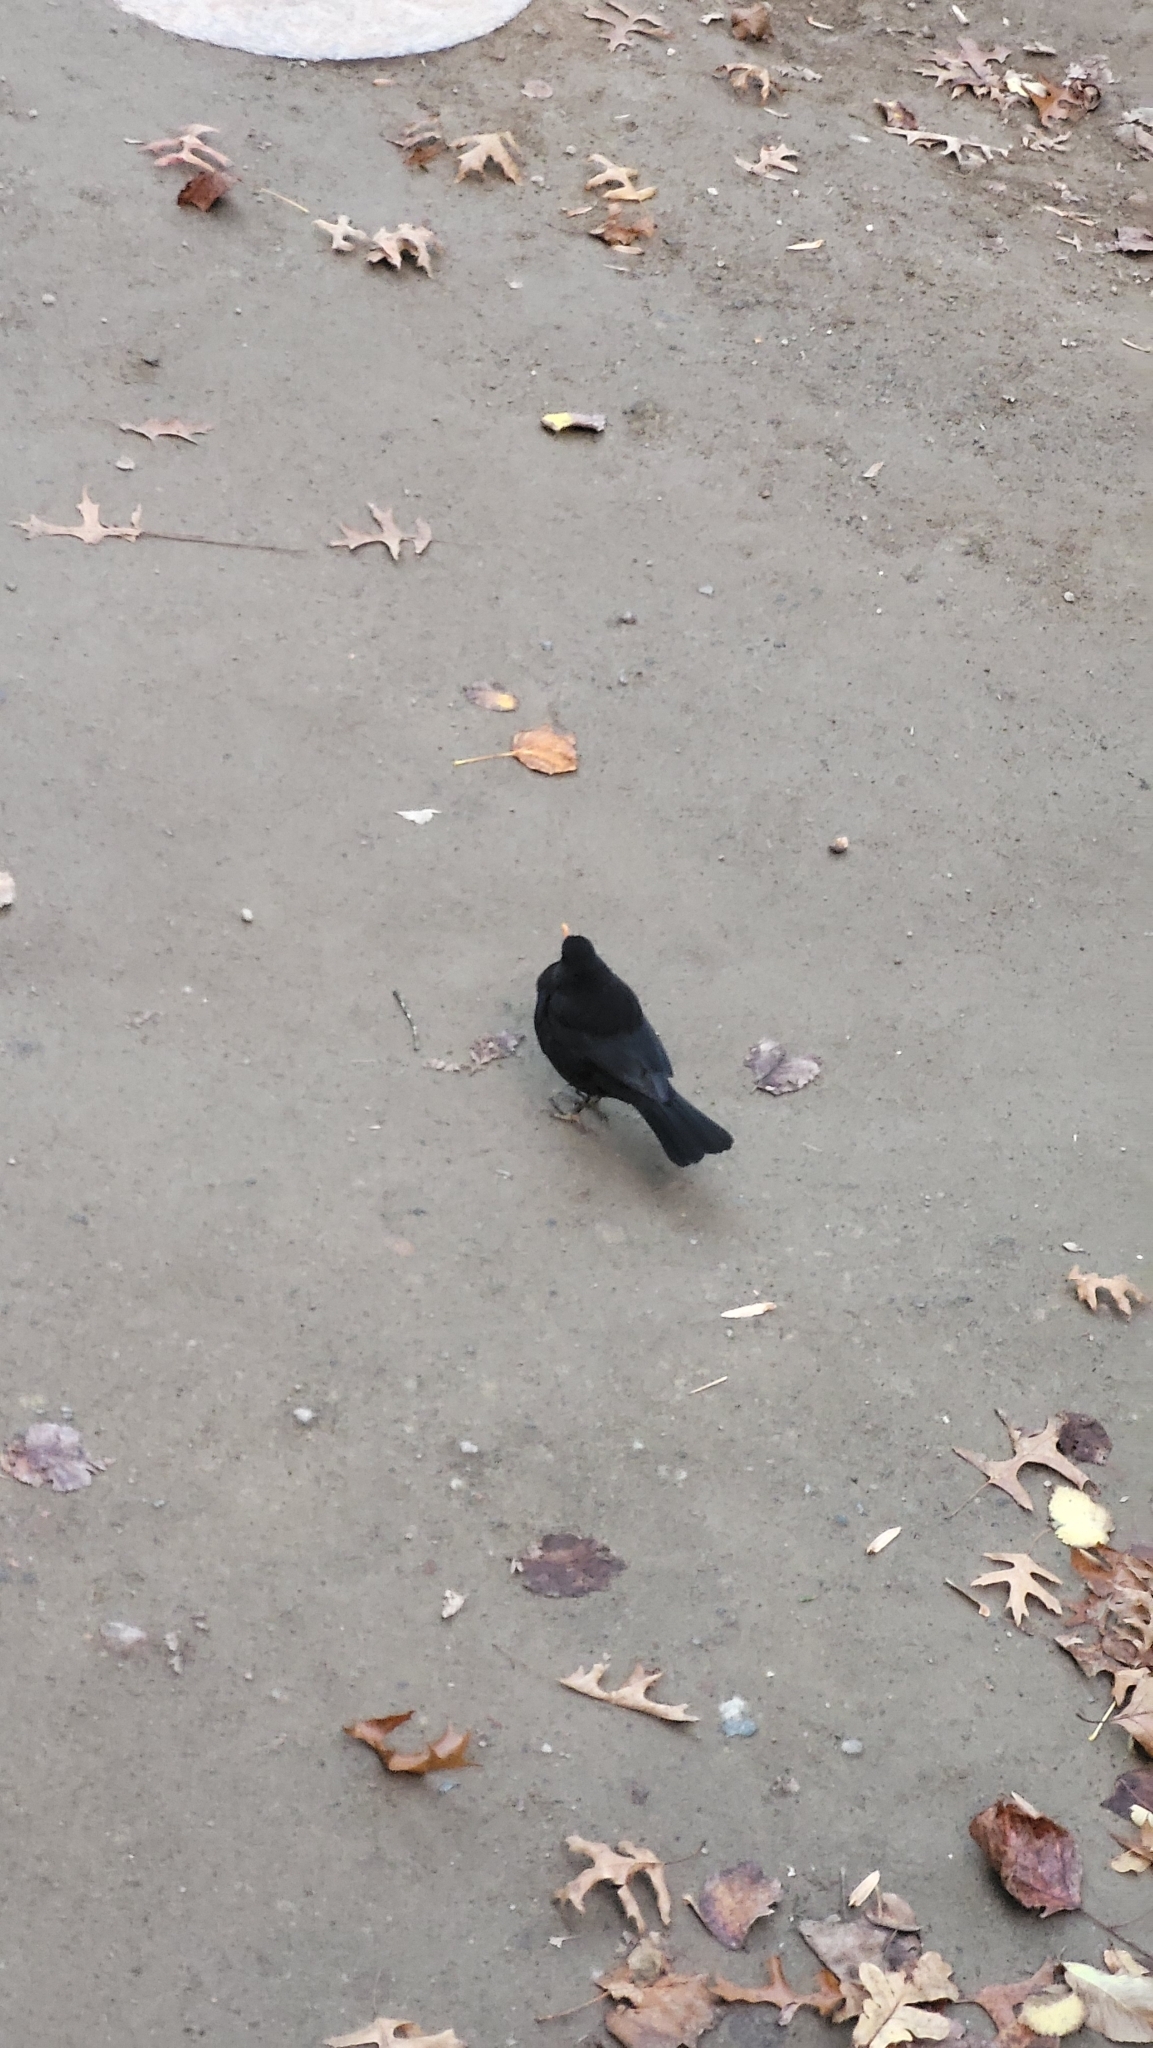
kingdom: Animalia
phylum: Chordata
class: Aves
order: Passeriformes
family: Turdidae
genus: Turdus
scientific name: Turdus merula
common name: Common blackbird
